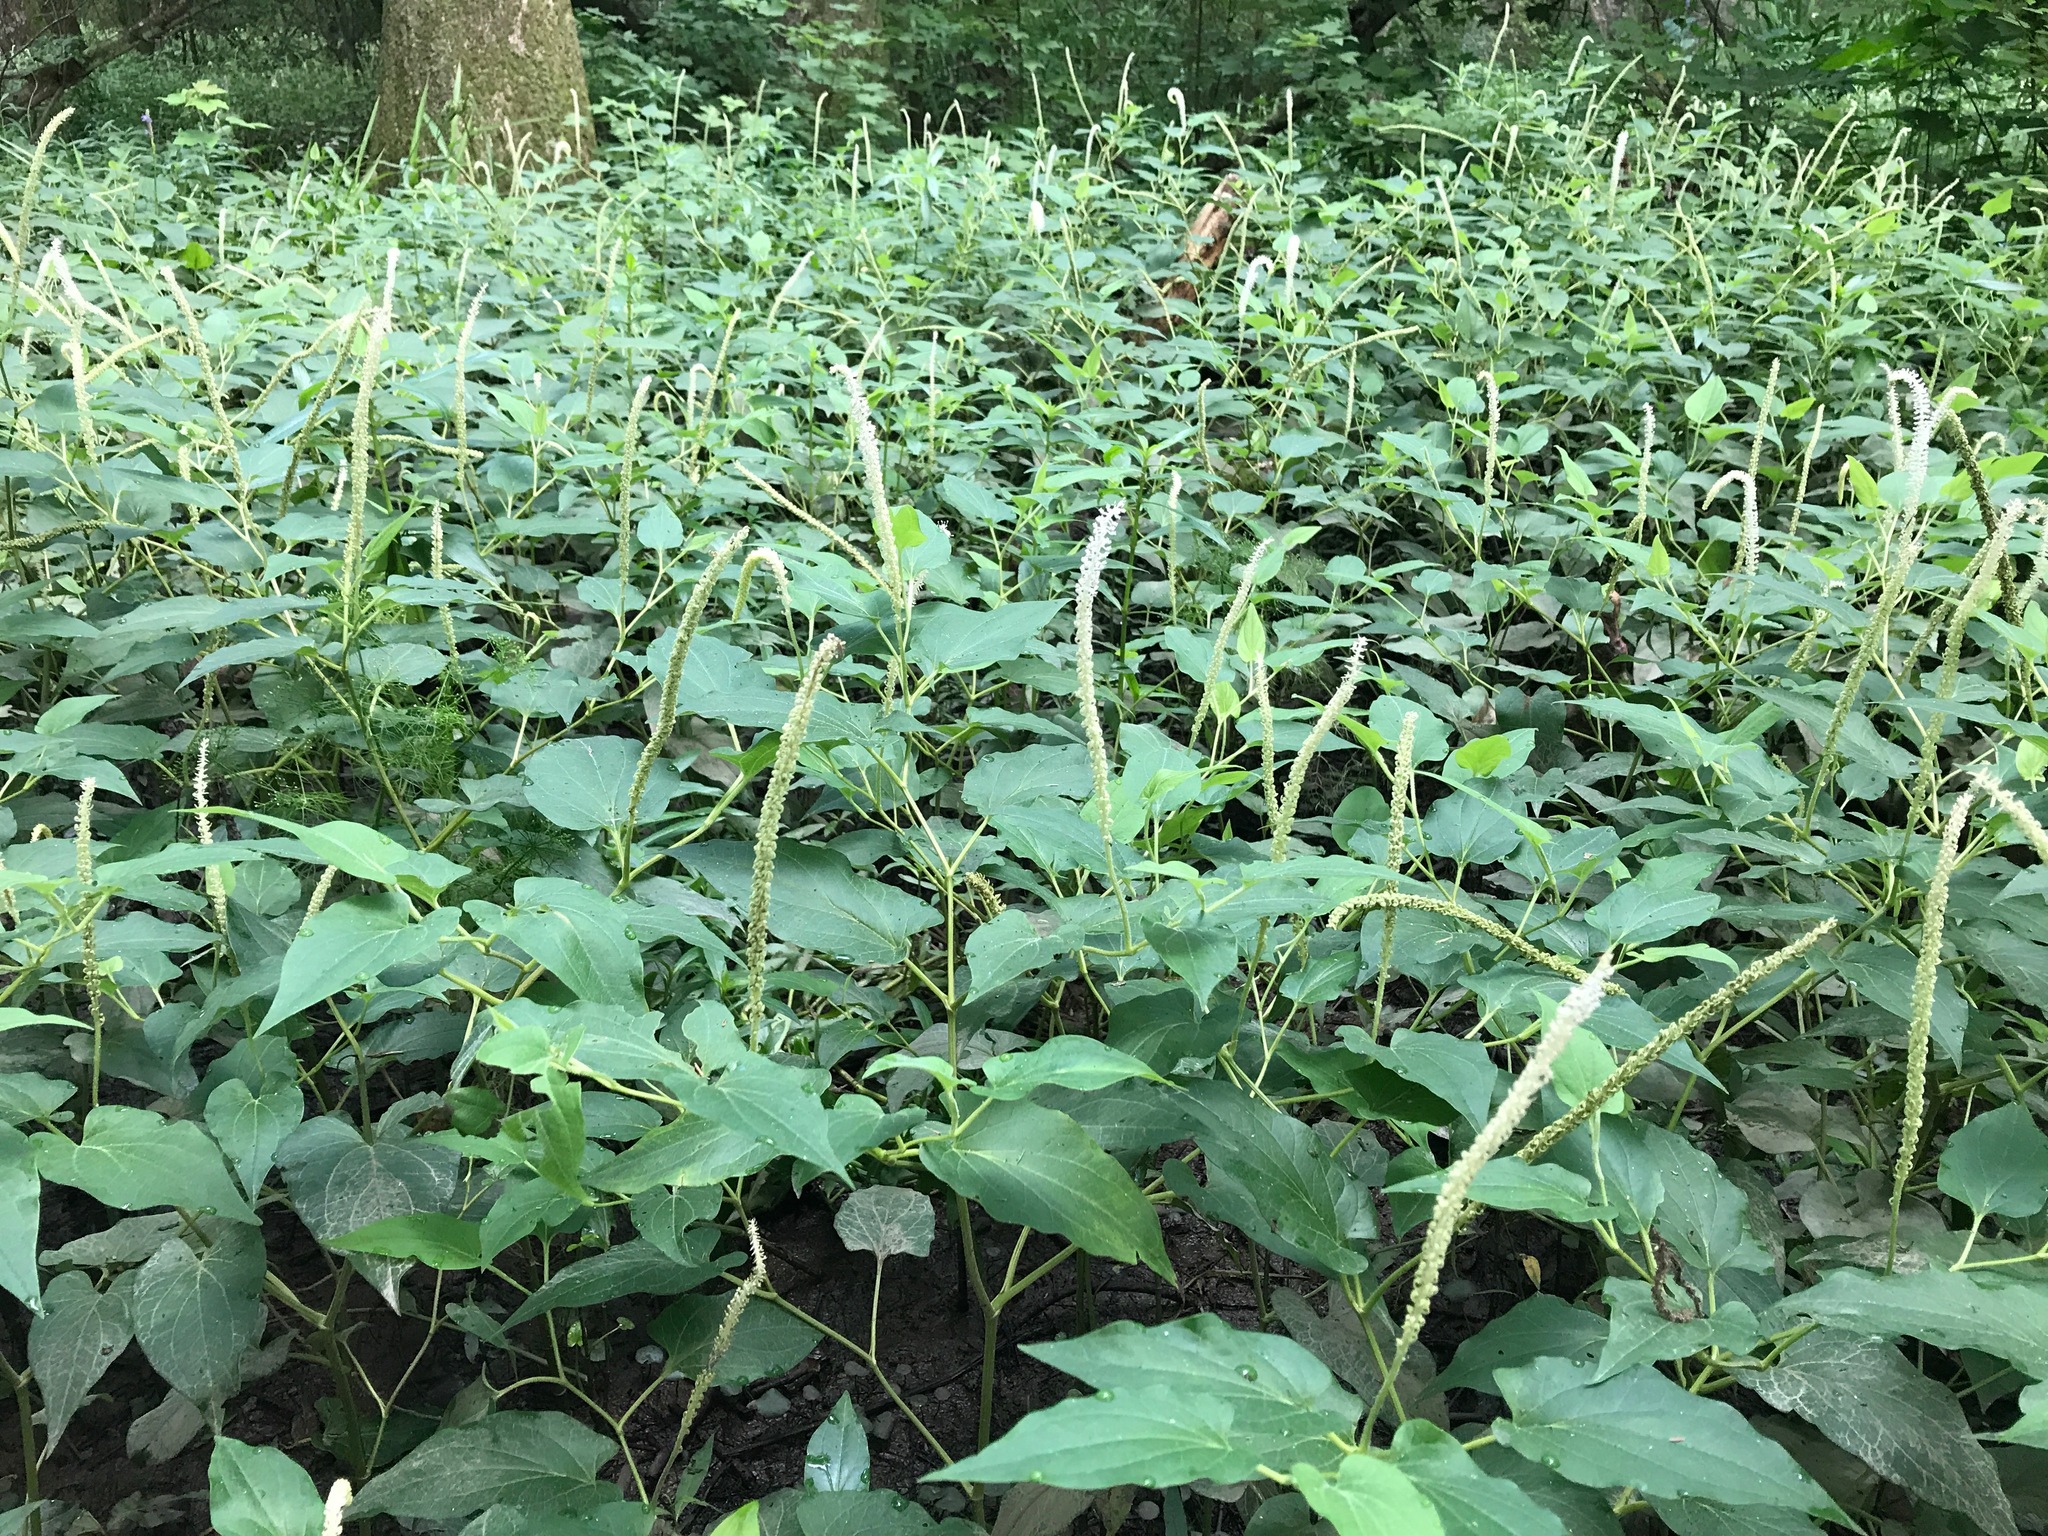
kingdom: Plantae
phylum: Tracheophyta
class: Magnoliopsida
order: Piperales
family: Saururaceae
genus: Saururus
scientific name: Saururus cernuus
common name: Lizard's-tail
